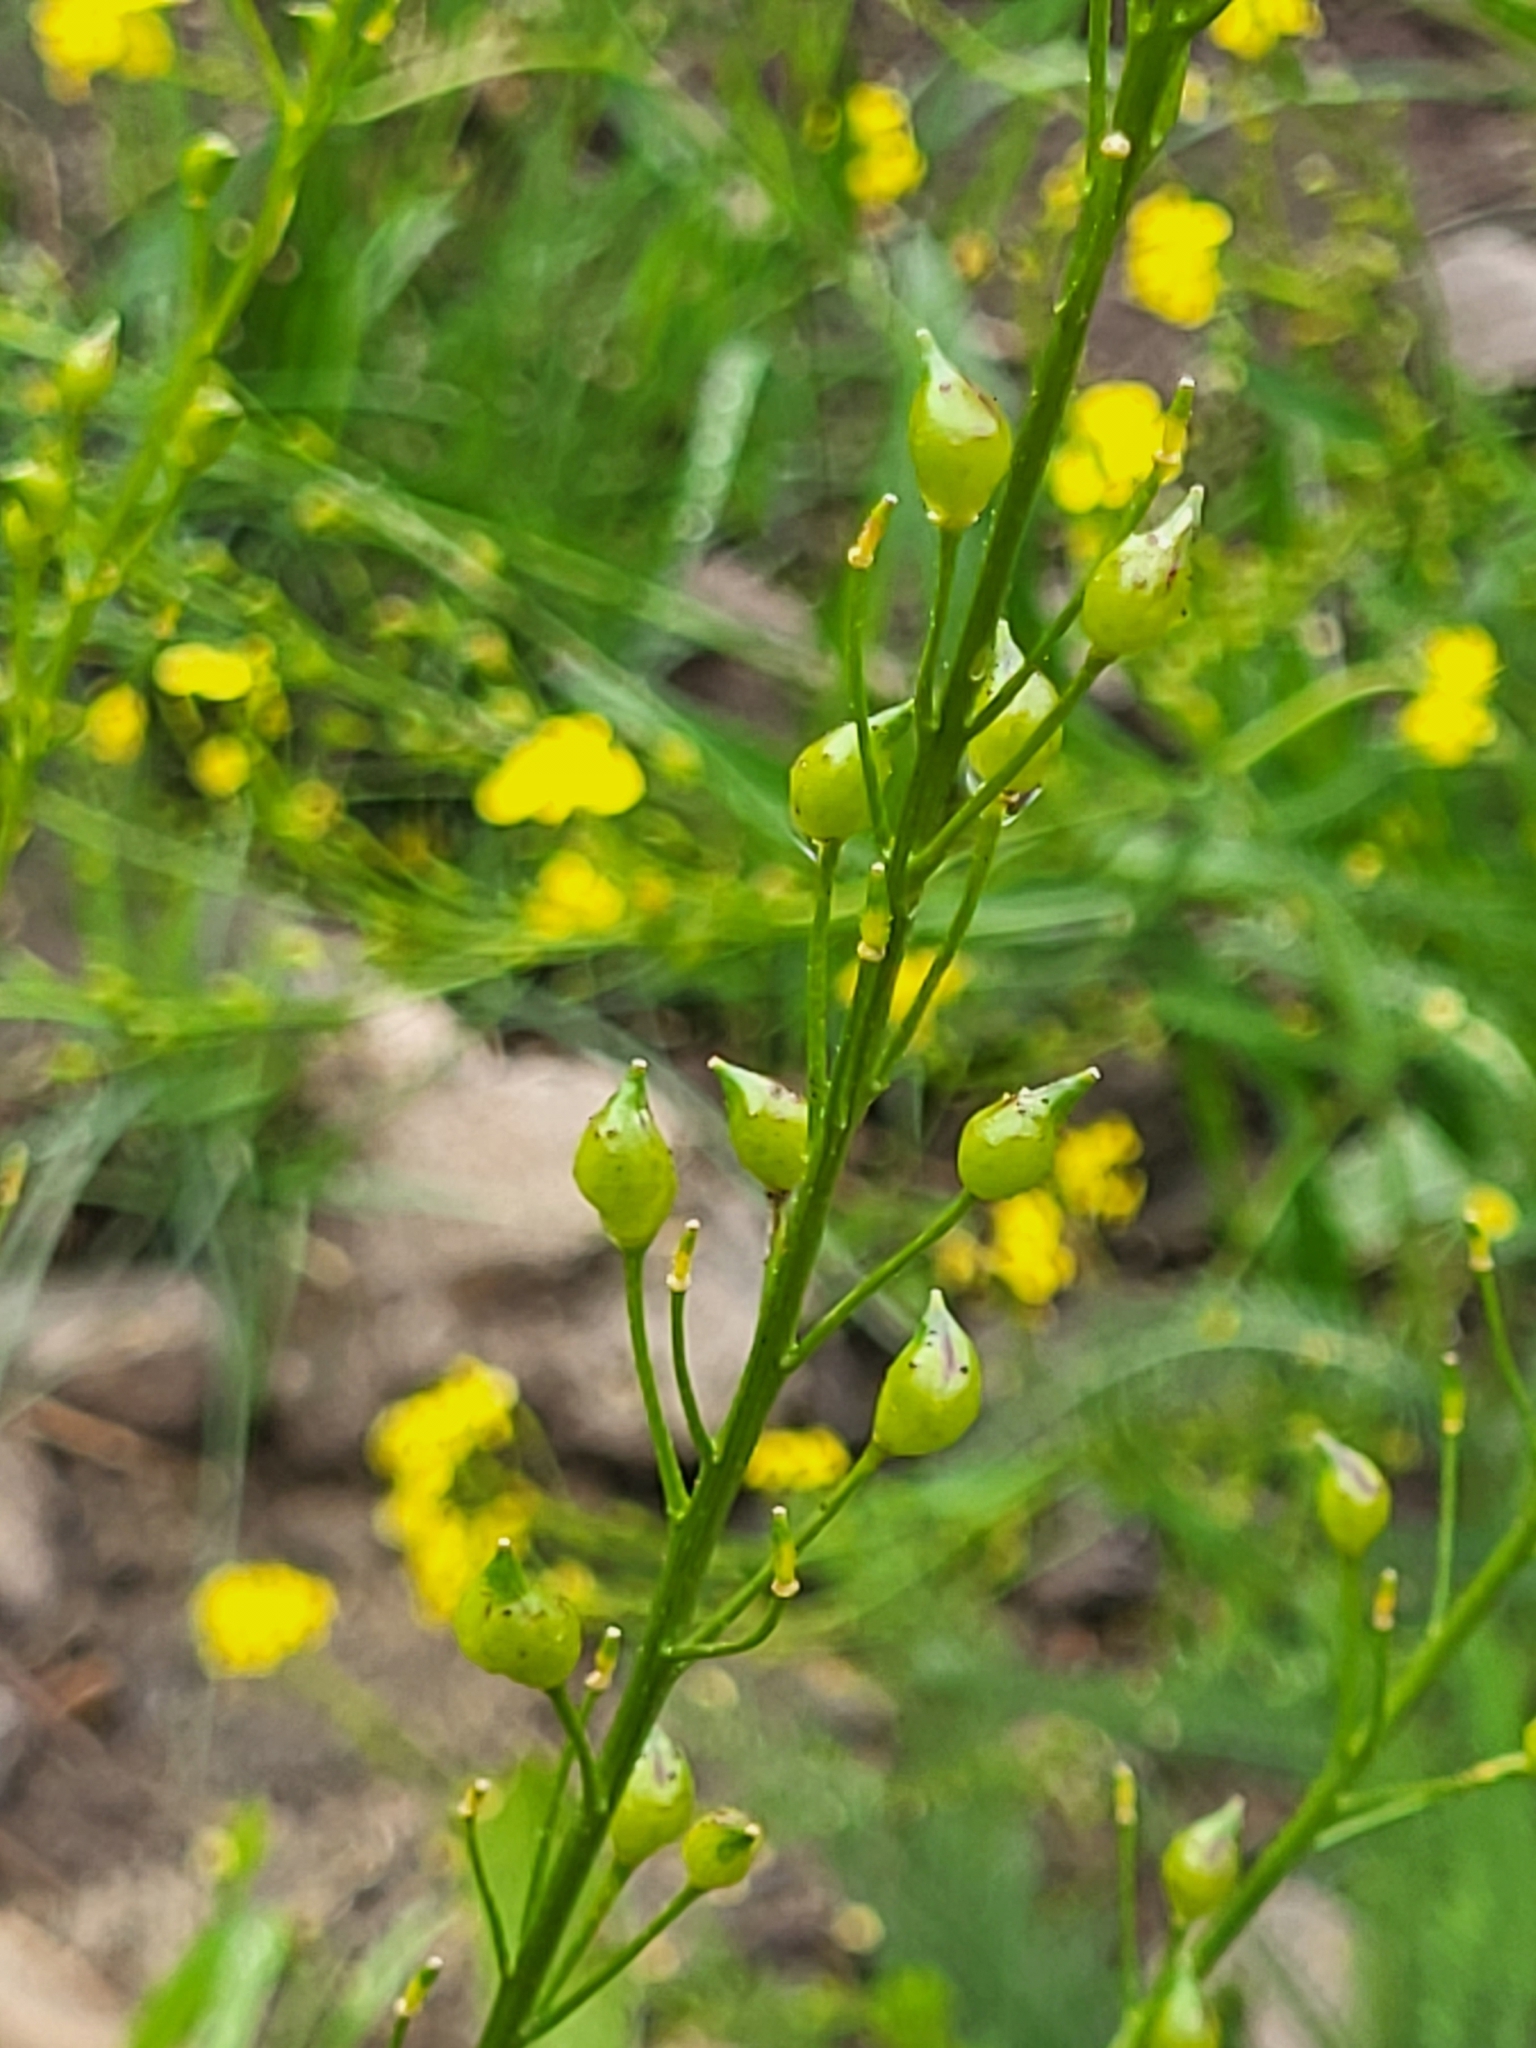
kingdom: Plantae
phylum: Tracheophyta
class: Magnoliopsida
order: Brassicales
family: Brassicaceae
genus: Bunias
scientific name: Bunias orientalis
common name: Warty-cabbage
